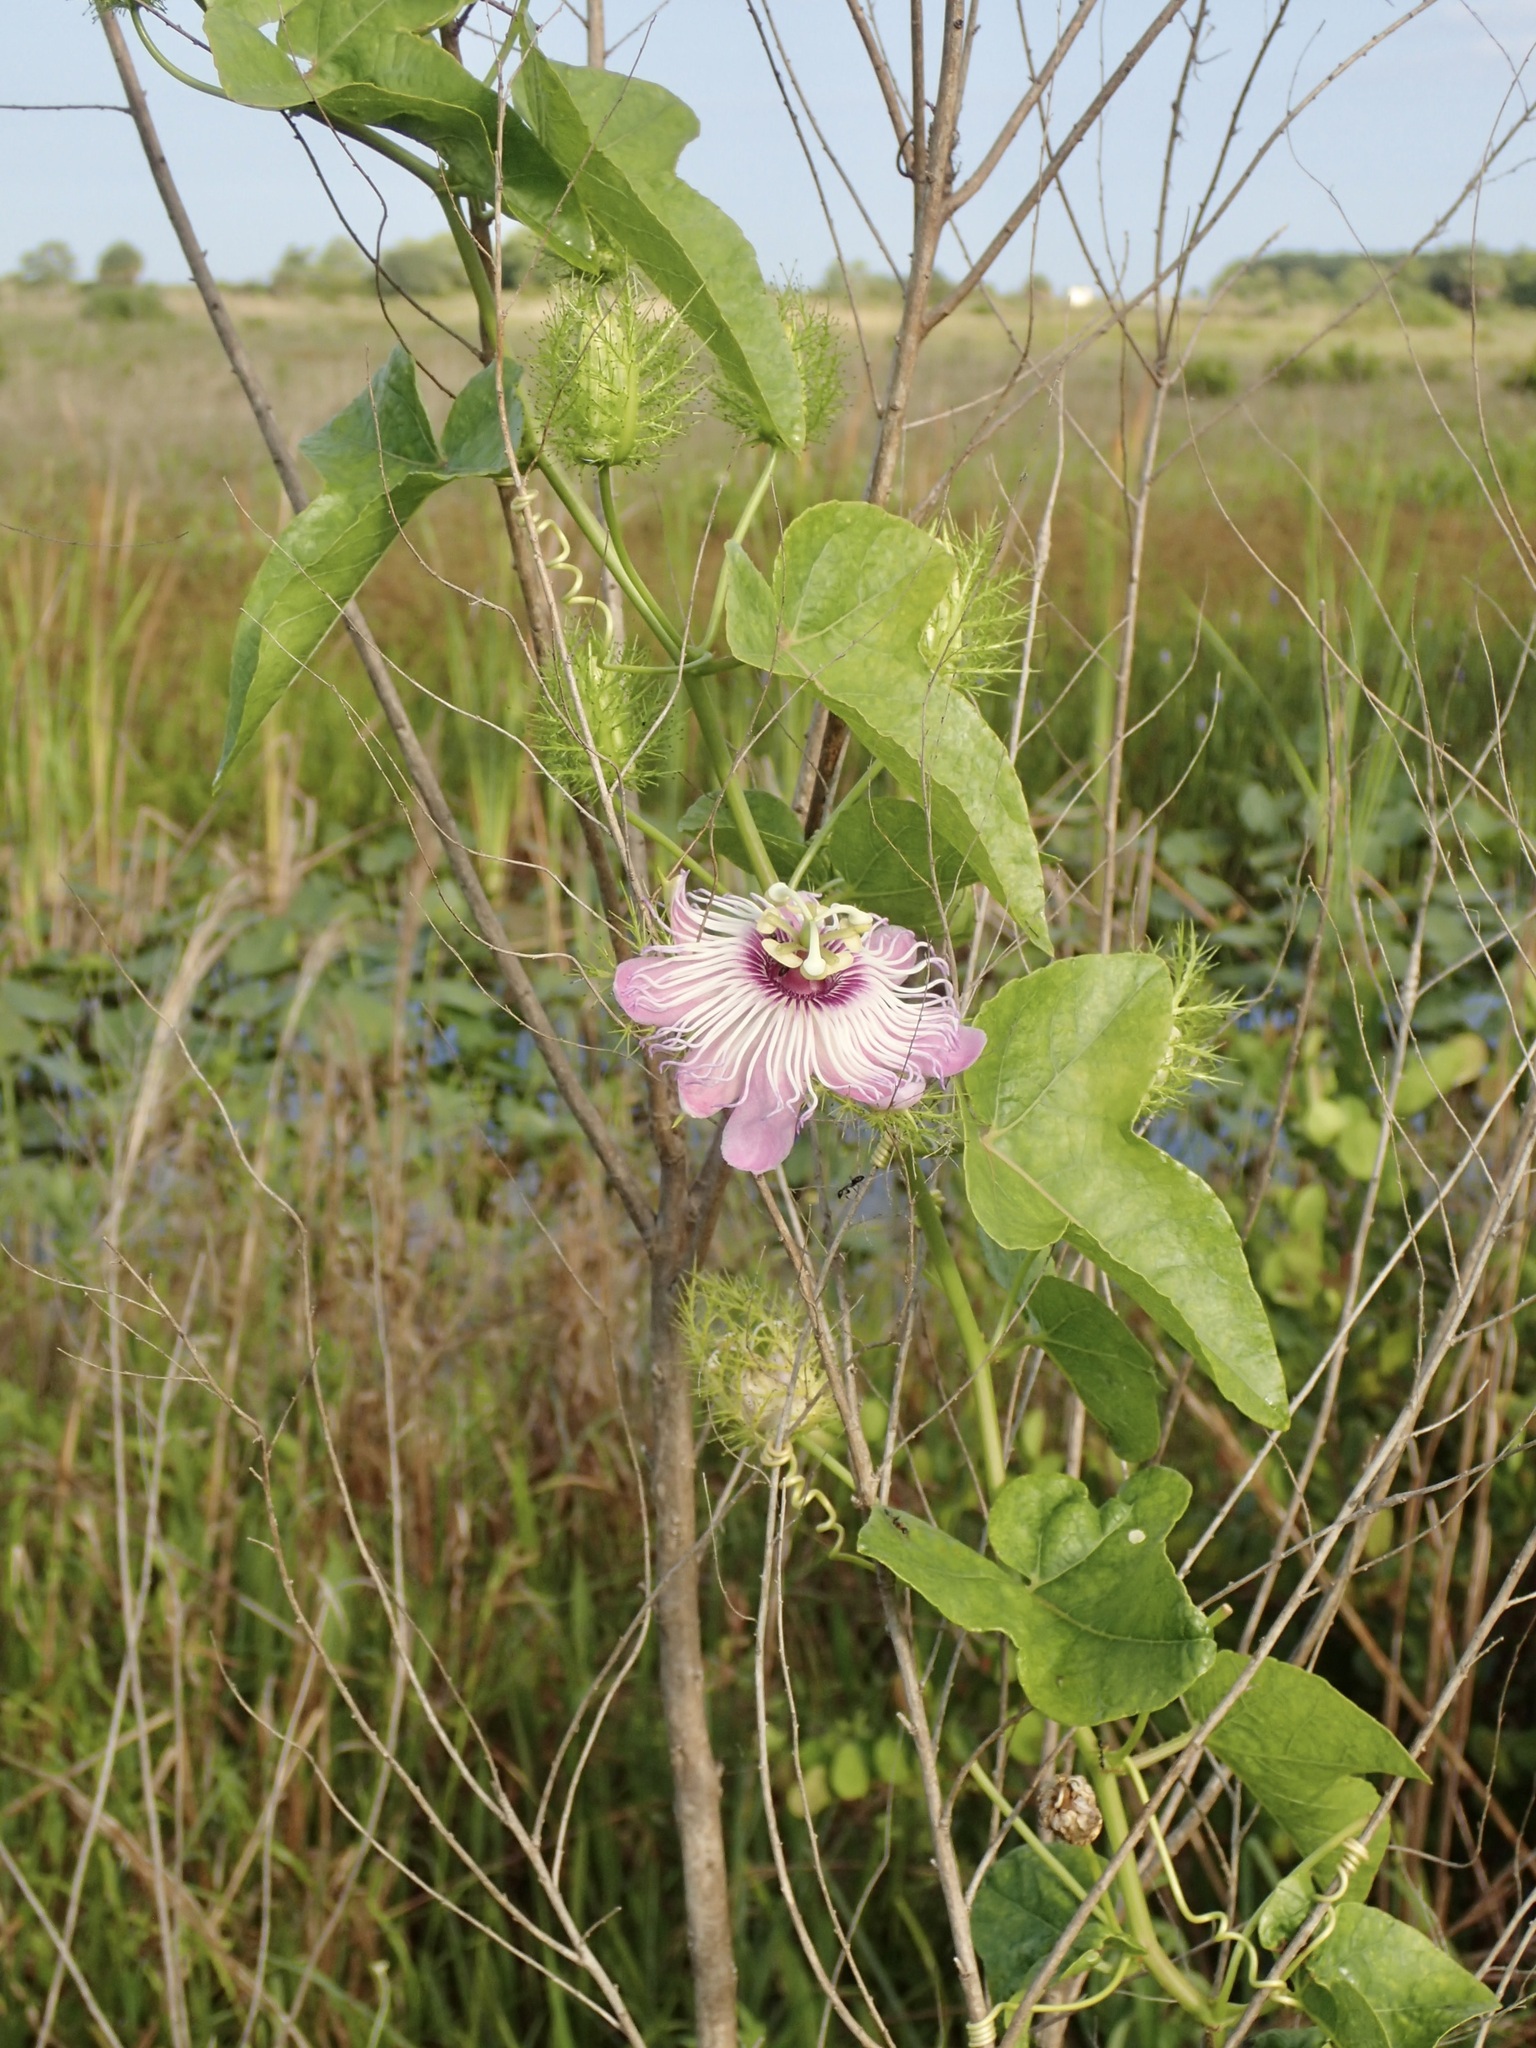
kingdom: Plantae
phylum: Tracheophyta
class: Magnoliopsida
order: Malpighiales
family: Passifloraceae
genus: Passiflora
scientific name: Passiflora ciliata
